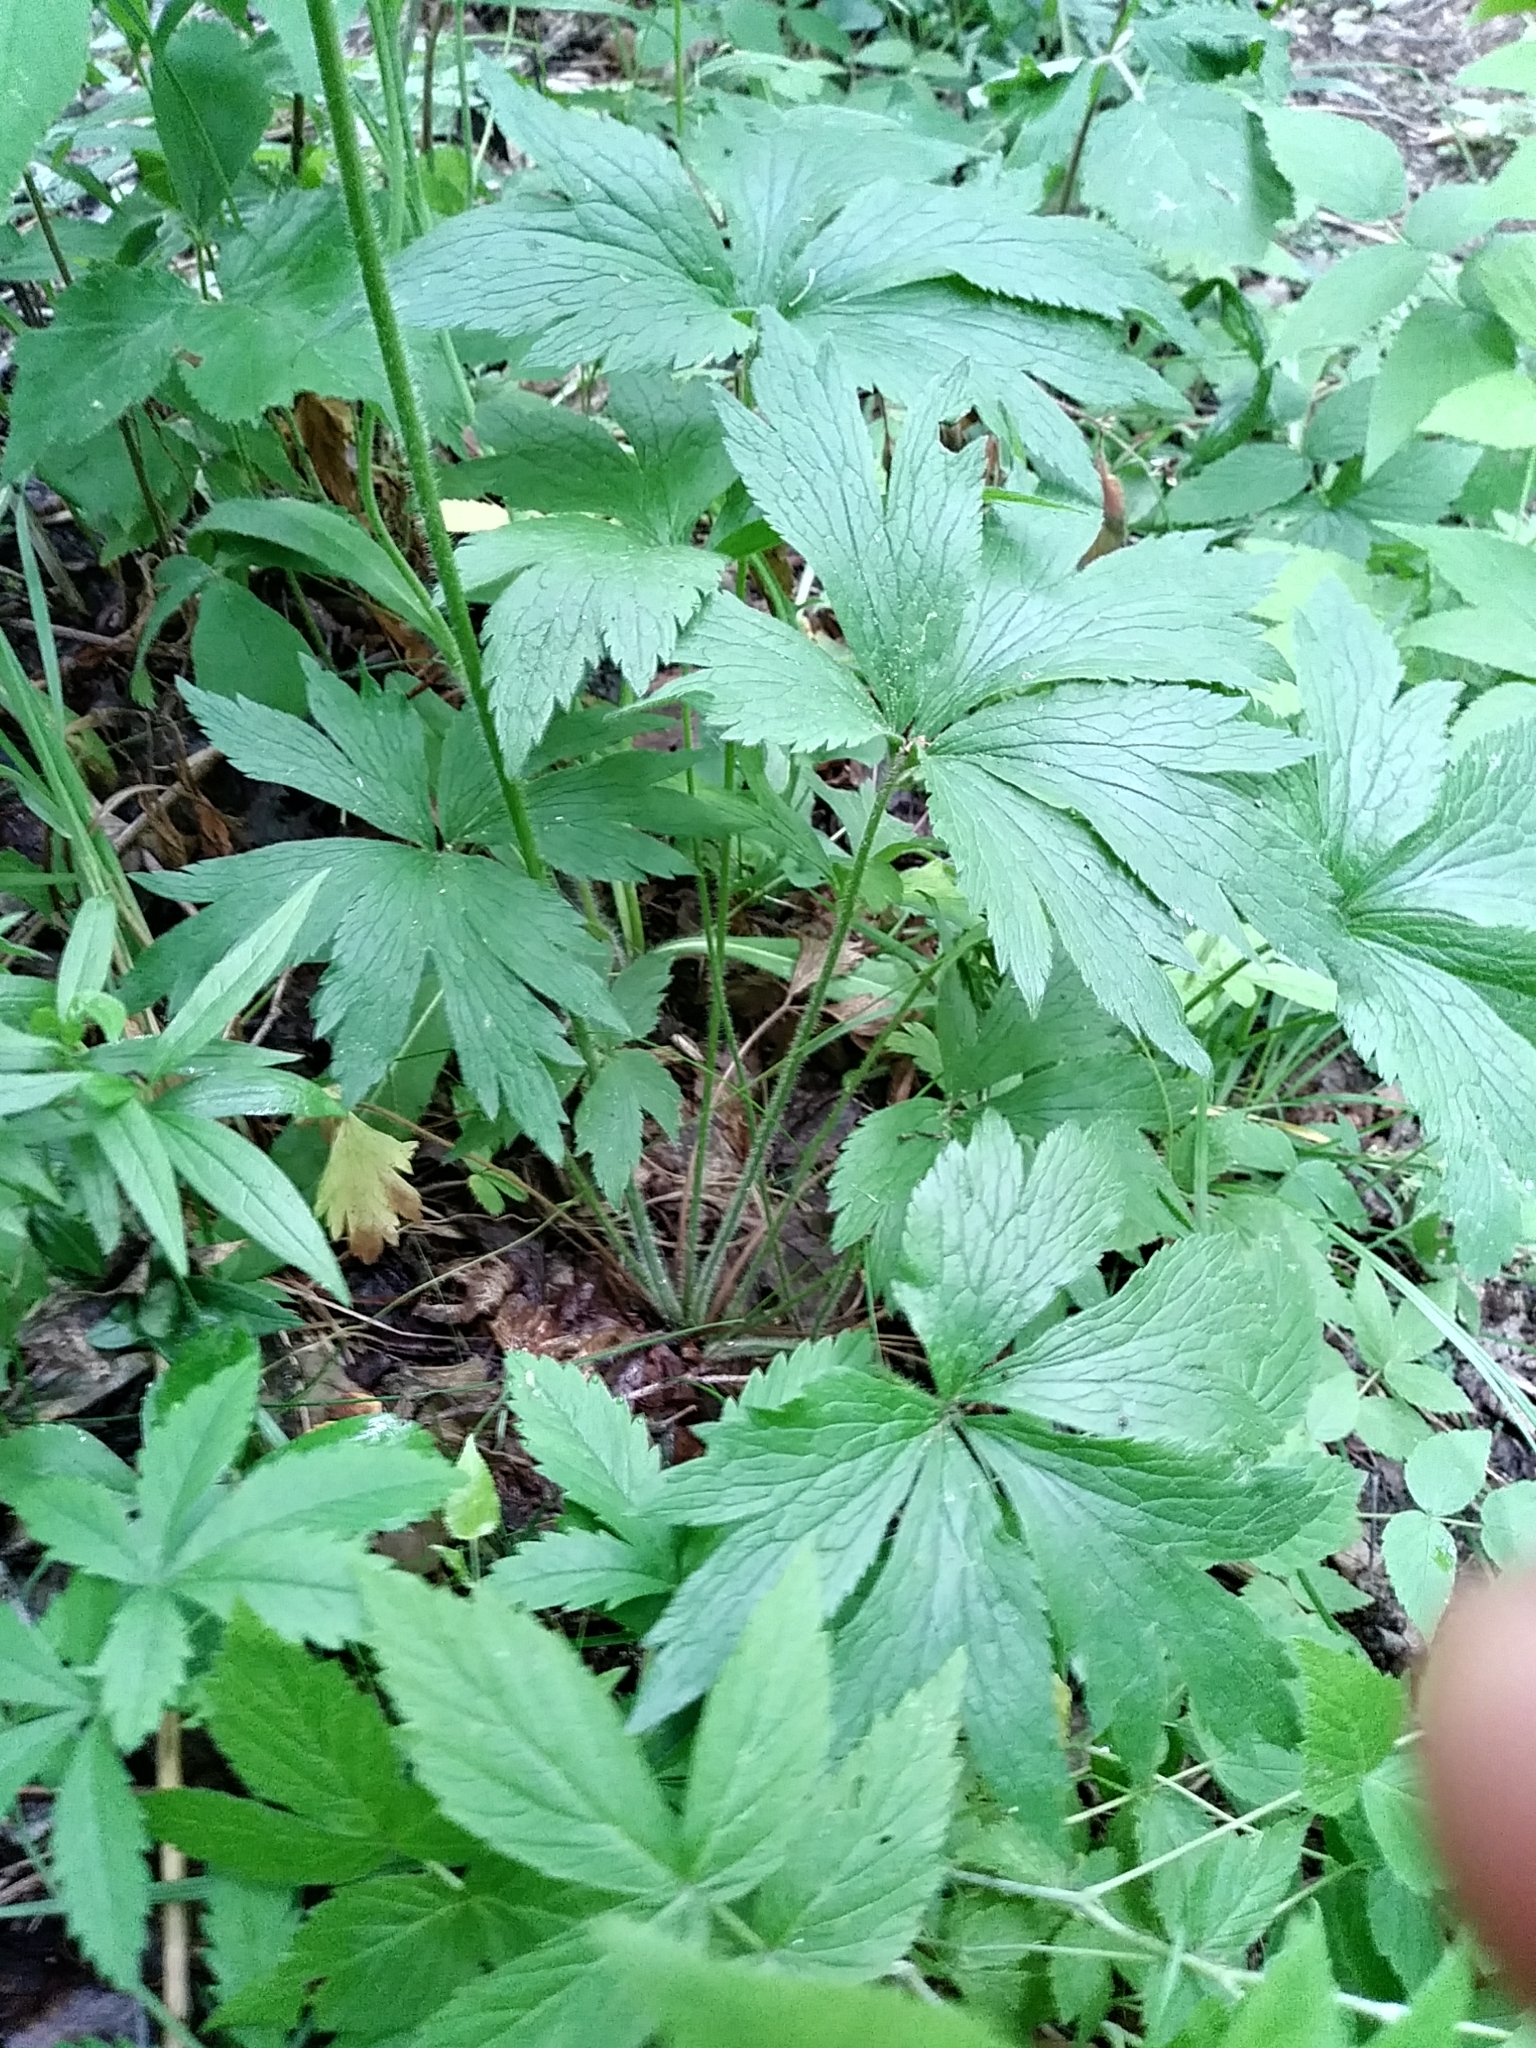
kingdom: Plantae
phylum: Tracheophyta
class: Magnoliopsida
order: Ranunculales
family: Ranunculaceae
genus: Anemone
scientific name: Anemone virginiana
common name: Tall anemone
